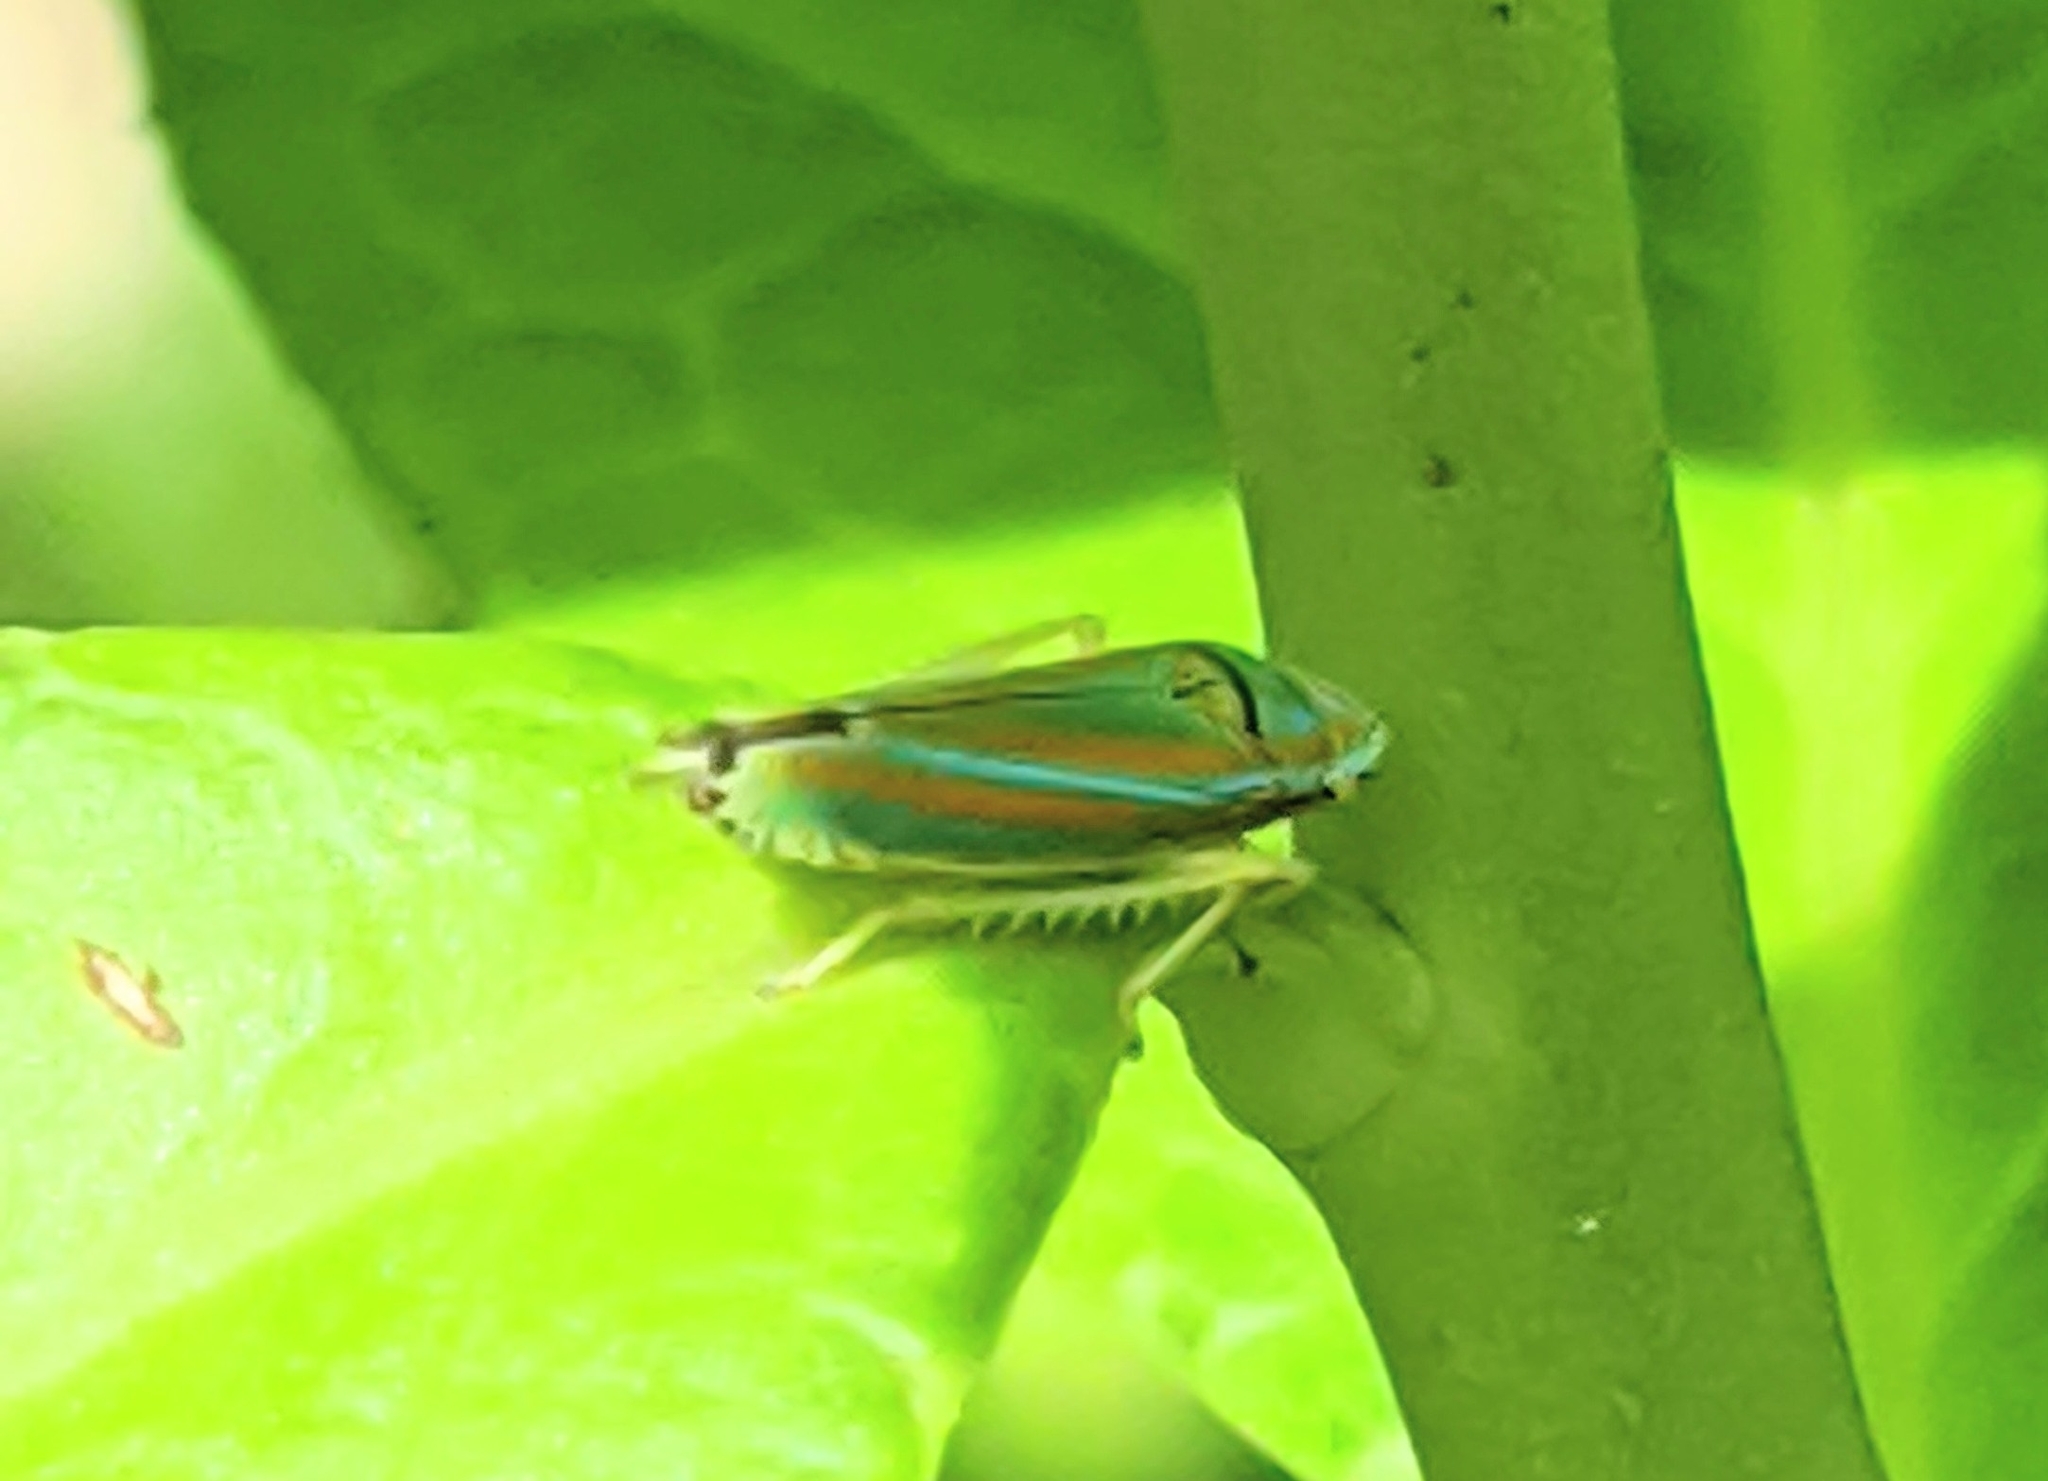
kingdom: Animalia
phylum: Arthropoda
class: Insecta
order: Hemiptera
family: Cicadellidae
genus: Graphocephala
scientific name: Graphocephala versuta
